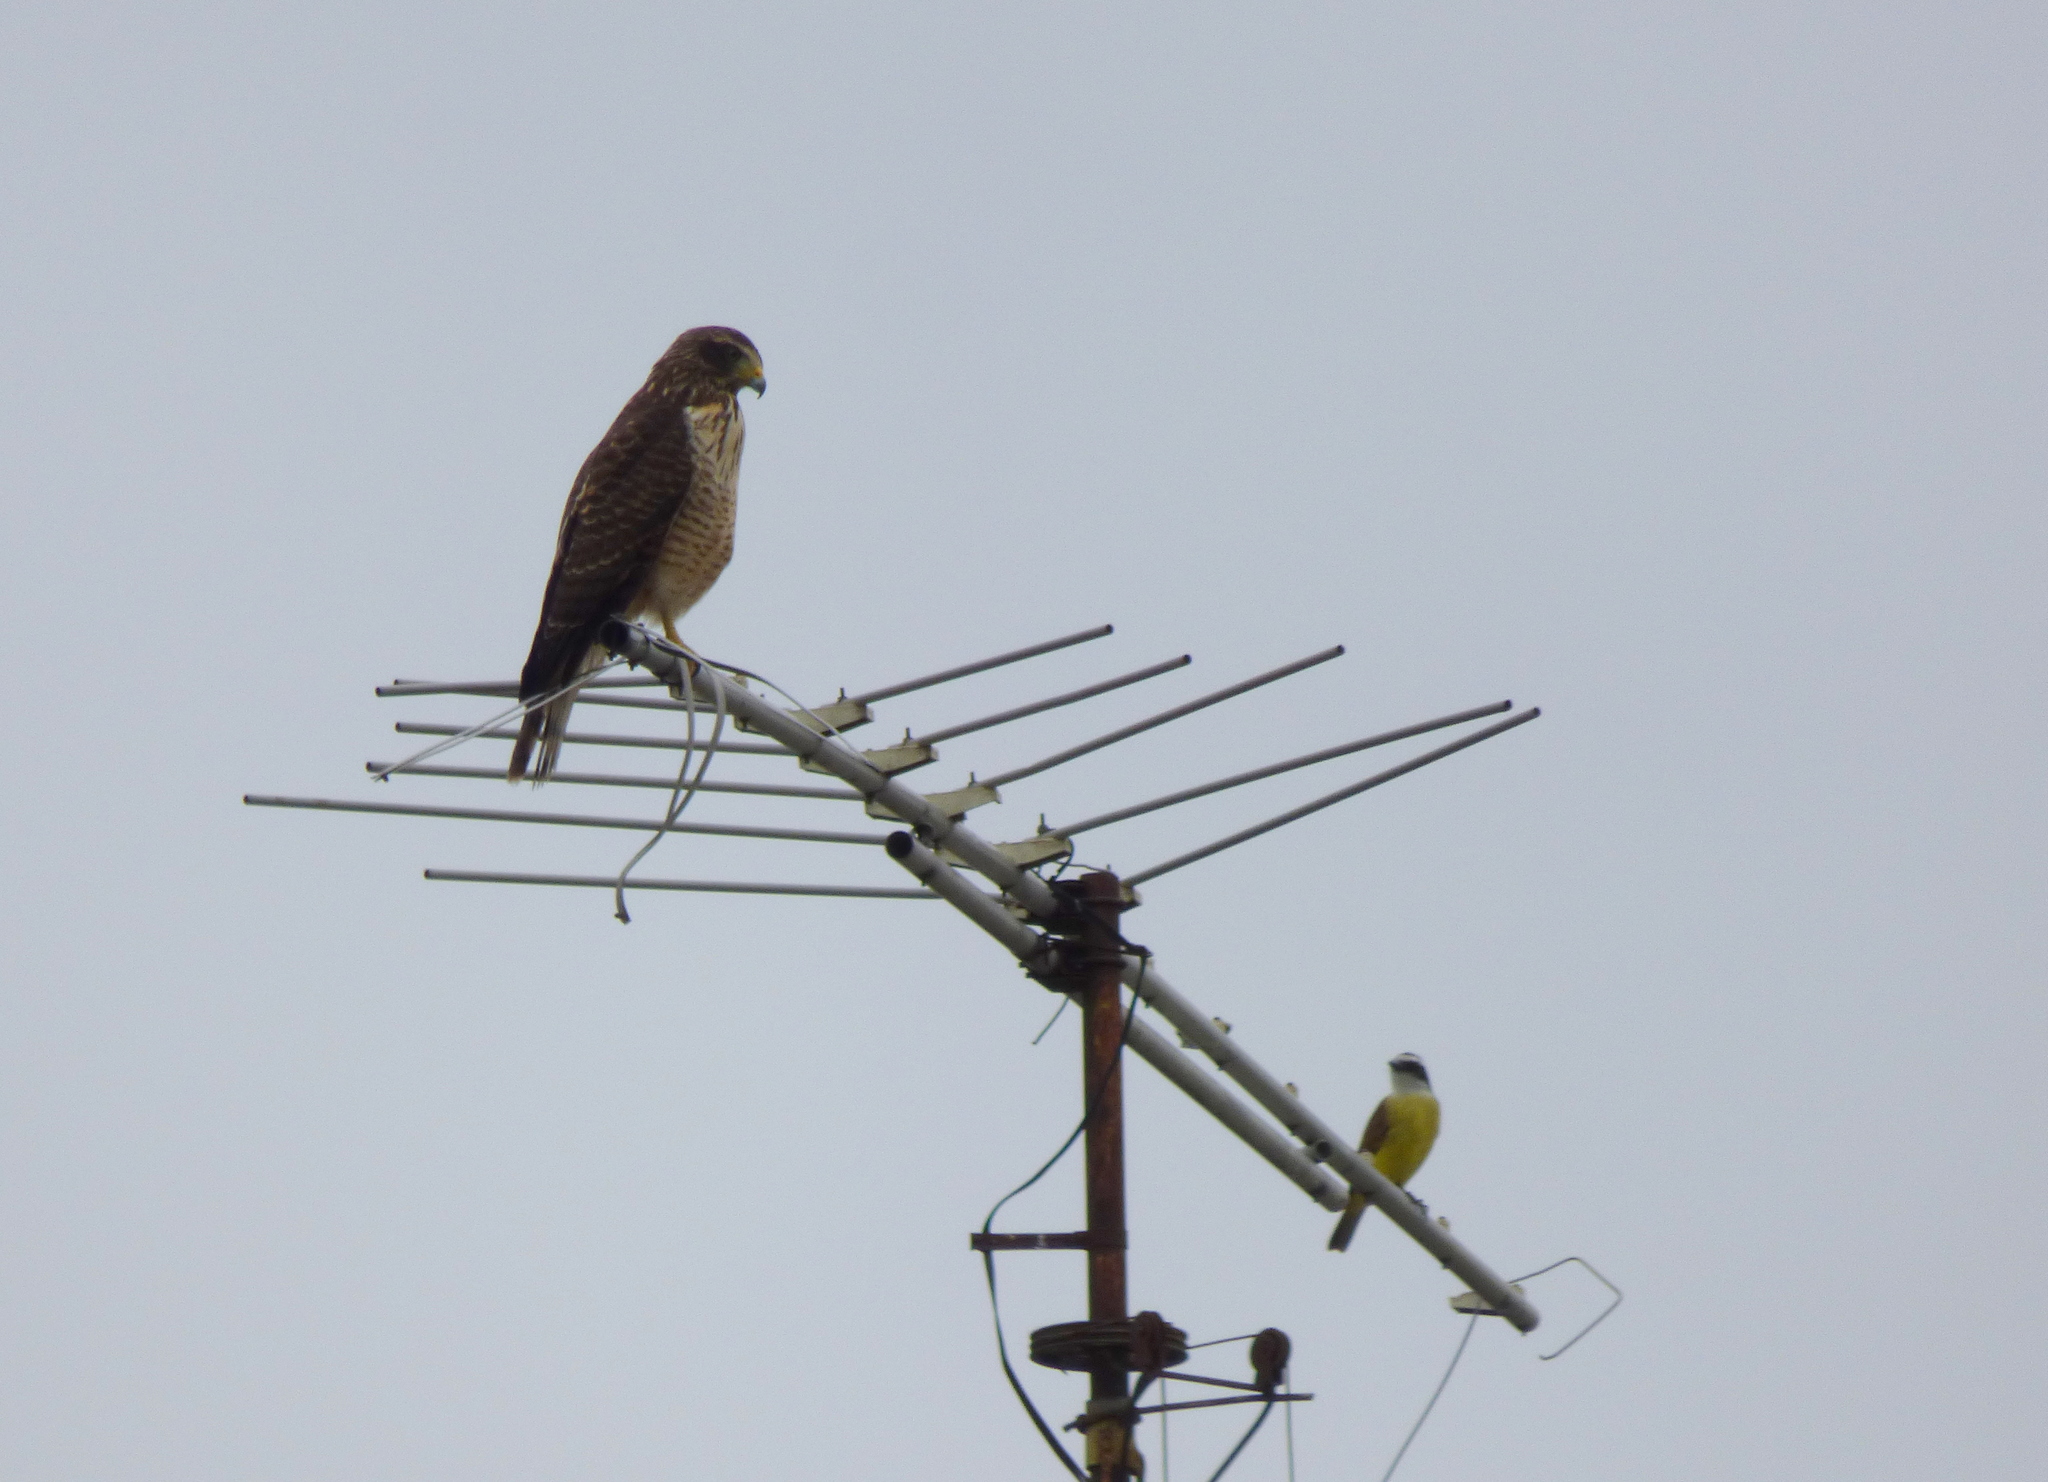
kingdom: Animalia
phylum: Chordata
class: Aves
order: Accipitriformes
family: Accipitridae
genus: Rupornis
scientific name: Rupornis magnirostris
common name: Roadside hawk
